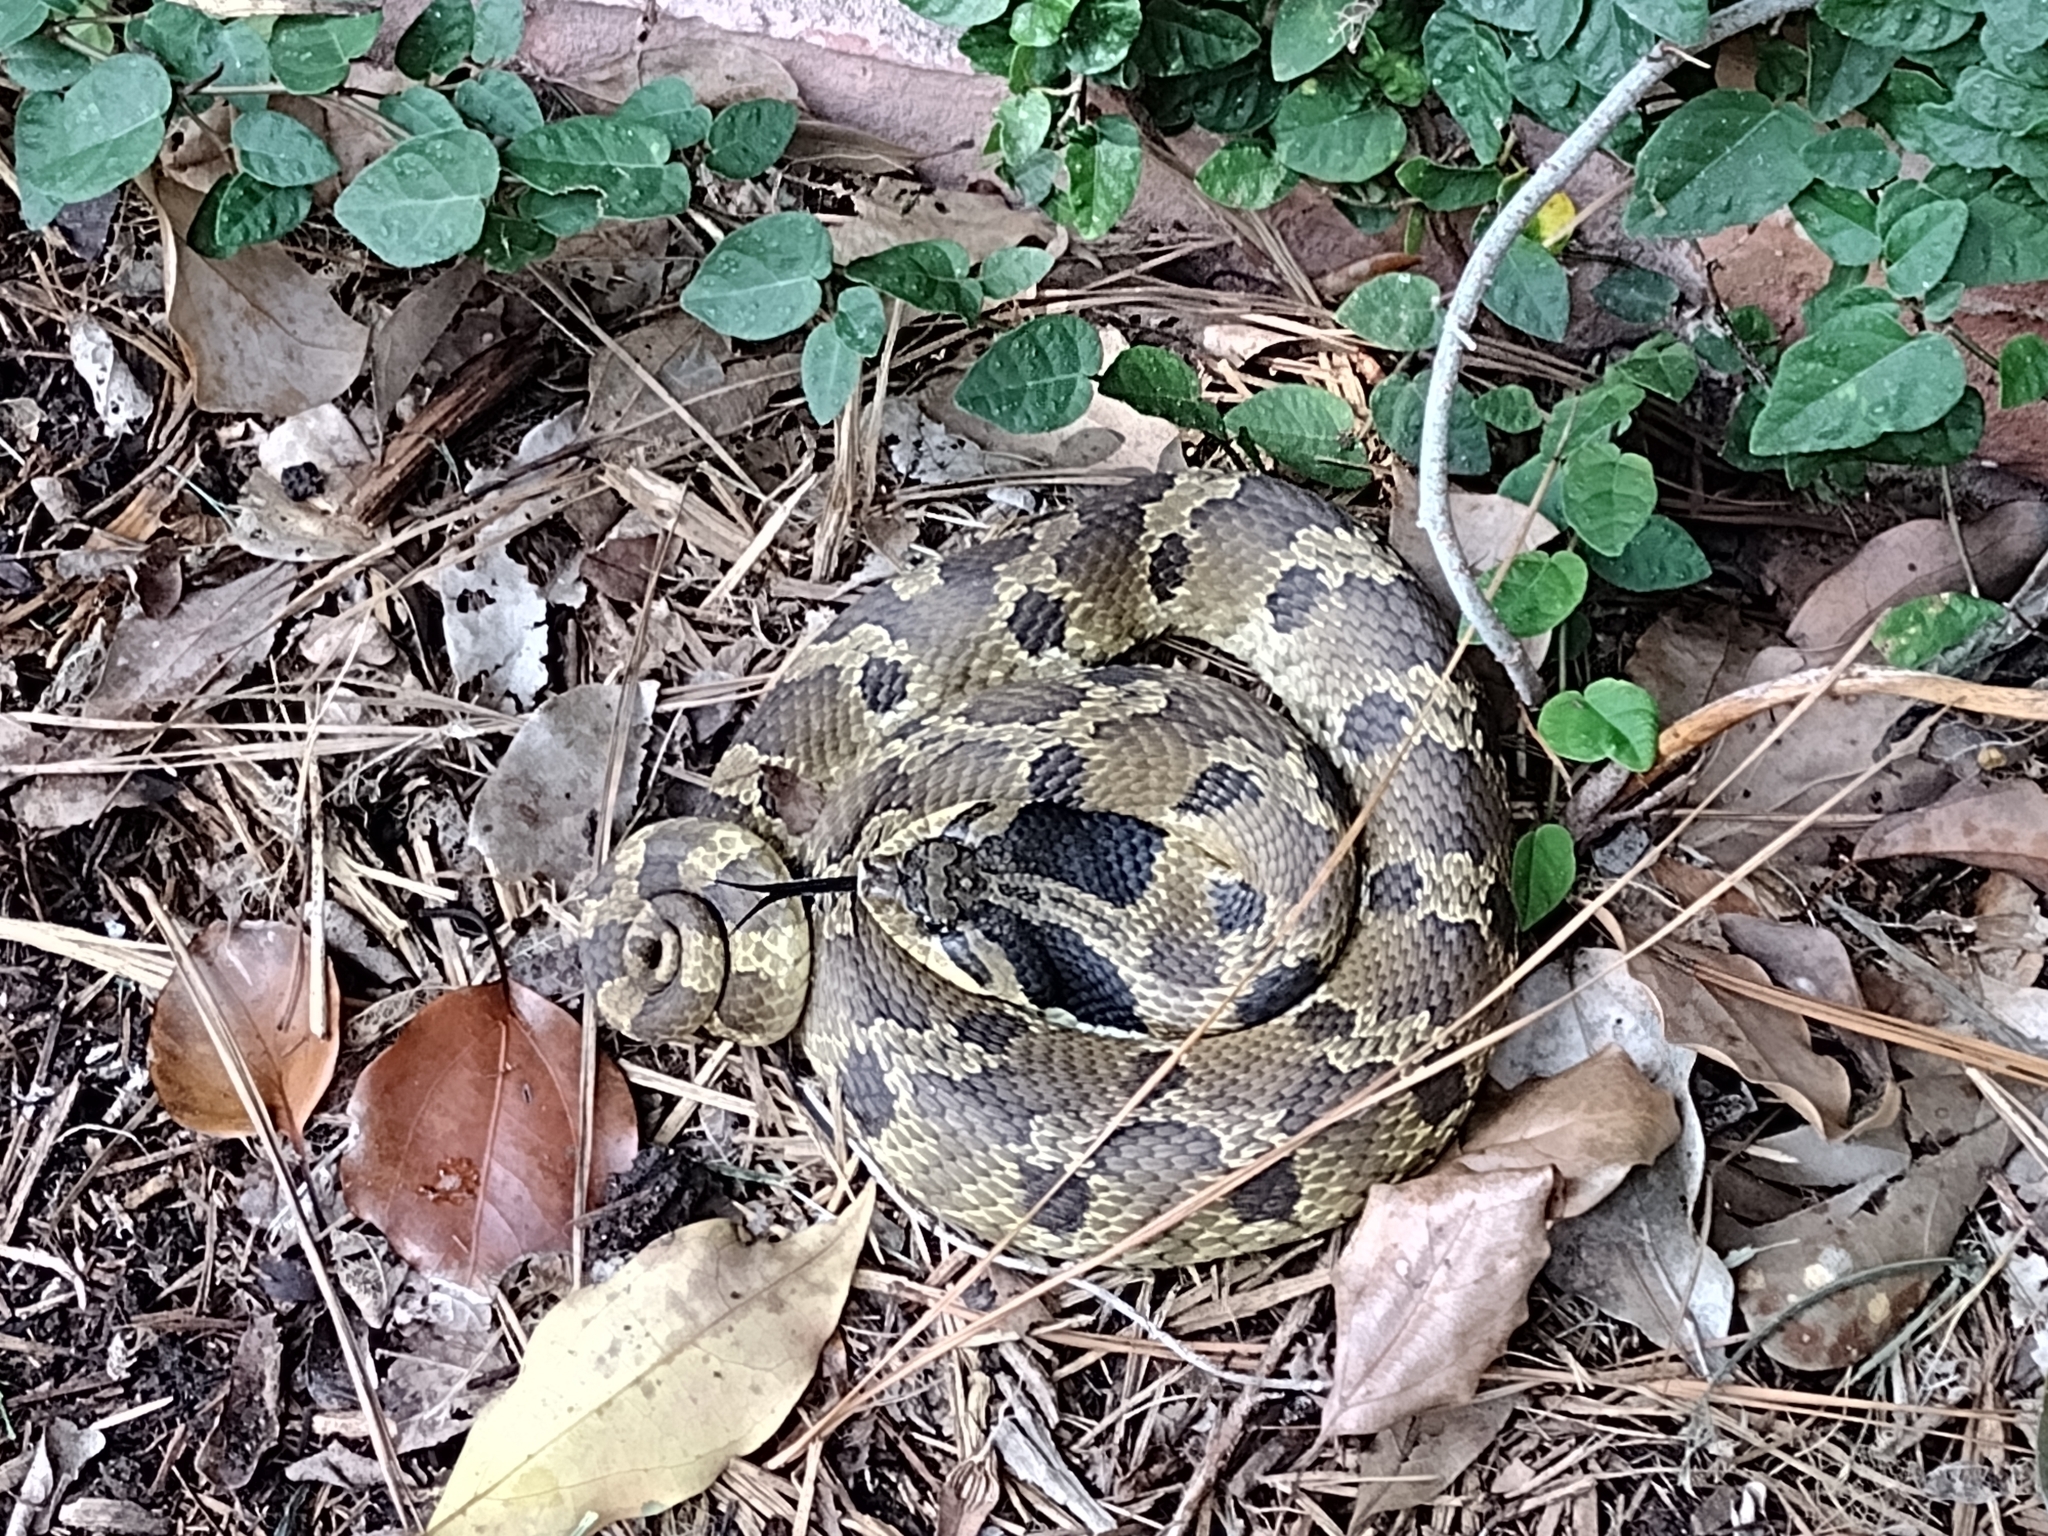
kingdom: Animalia
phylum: Chordata
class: Squamata
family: Colubridae
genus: Heterodon
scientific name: Heterodon platirhinos
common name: Eastern hognose snake
